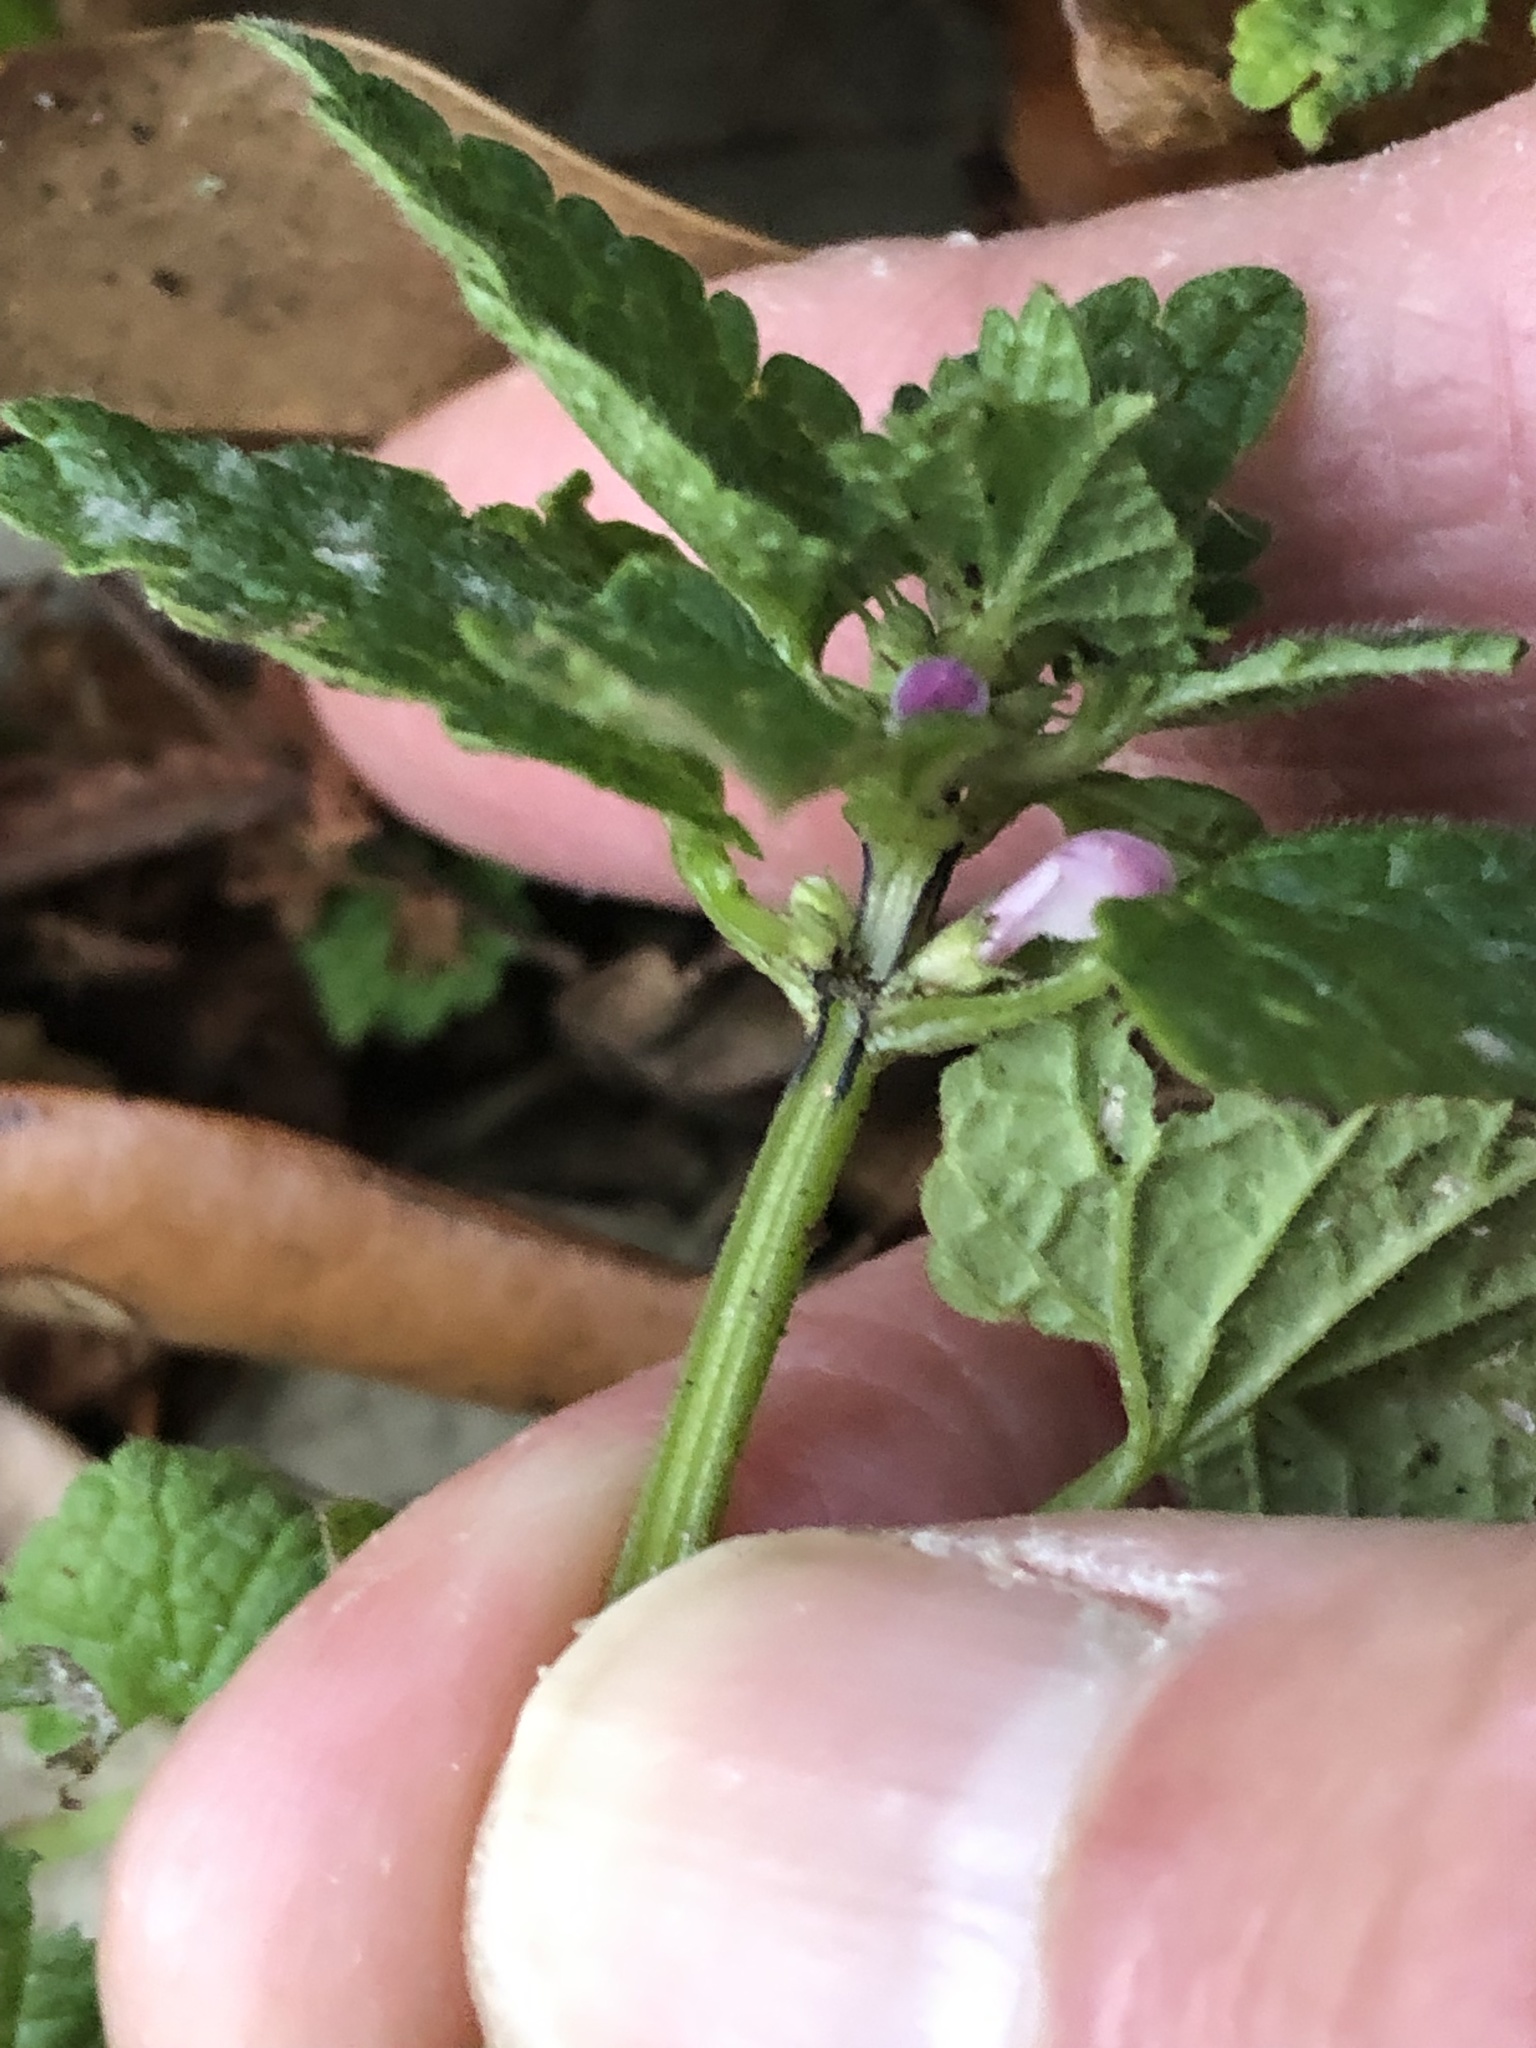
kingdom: Plantae
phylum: Tracheophyta
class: Magnoliopsida
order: Lamiales
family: Lamiaceae
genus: Lamium
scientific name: Lamium purpureum
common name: Red dead-nettle
